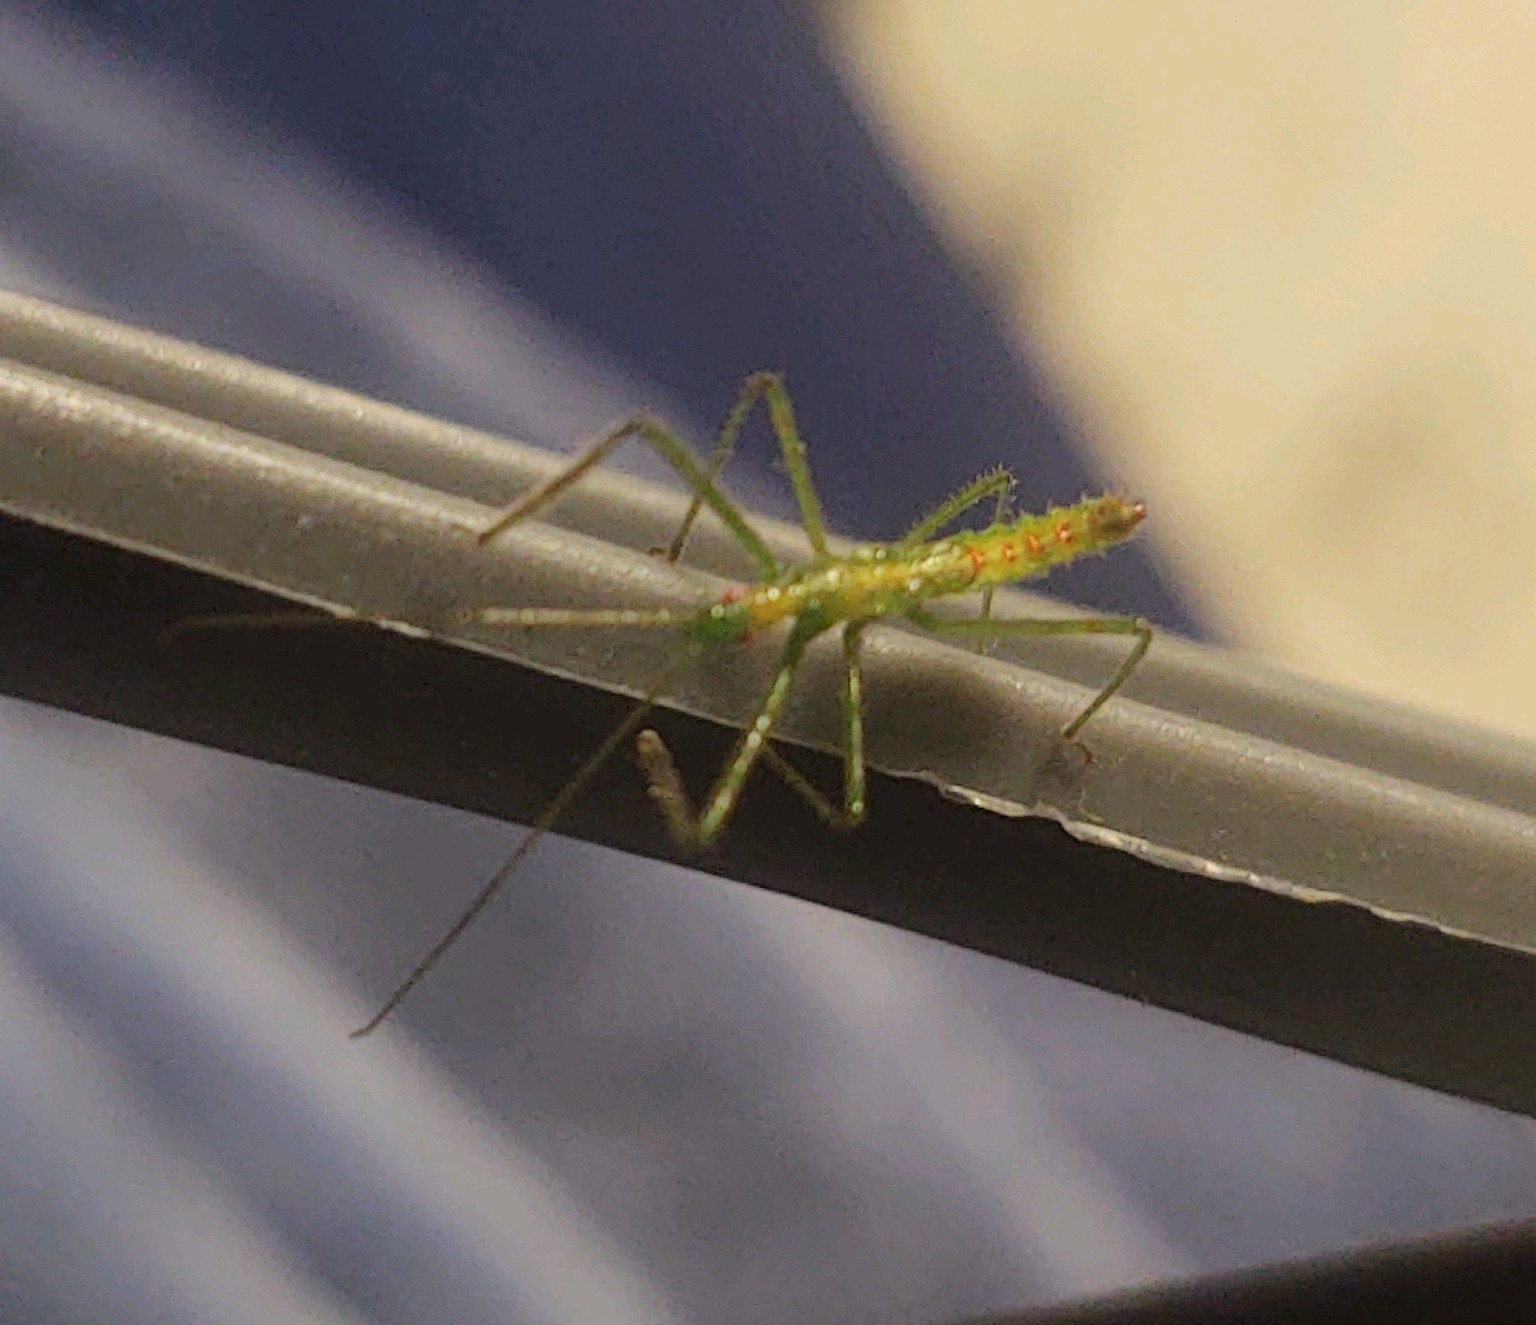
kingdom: Animalia
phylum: Arthropoda
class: Insecta
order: Hemiptera
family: Reduviidae
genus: Zelus
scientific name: Zelus luridus
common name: Pale green assassin bug
